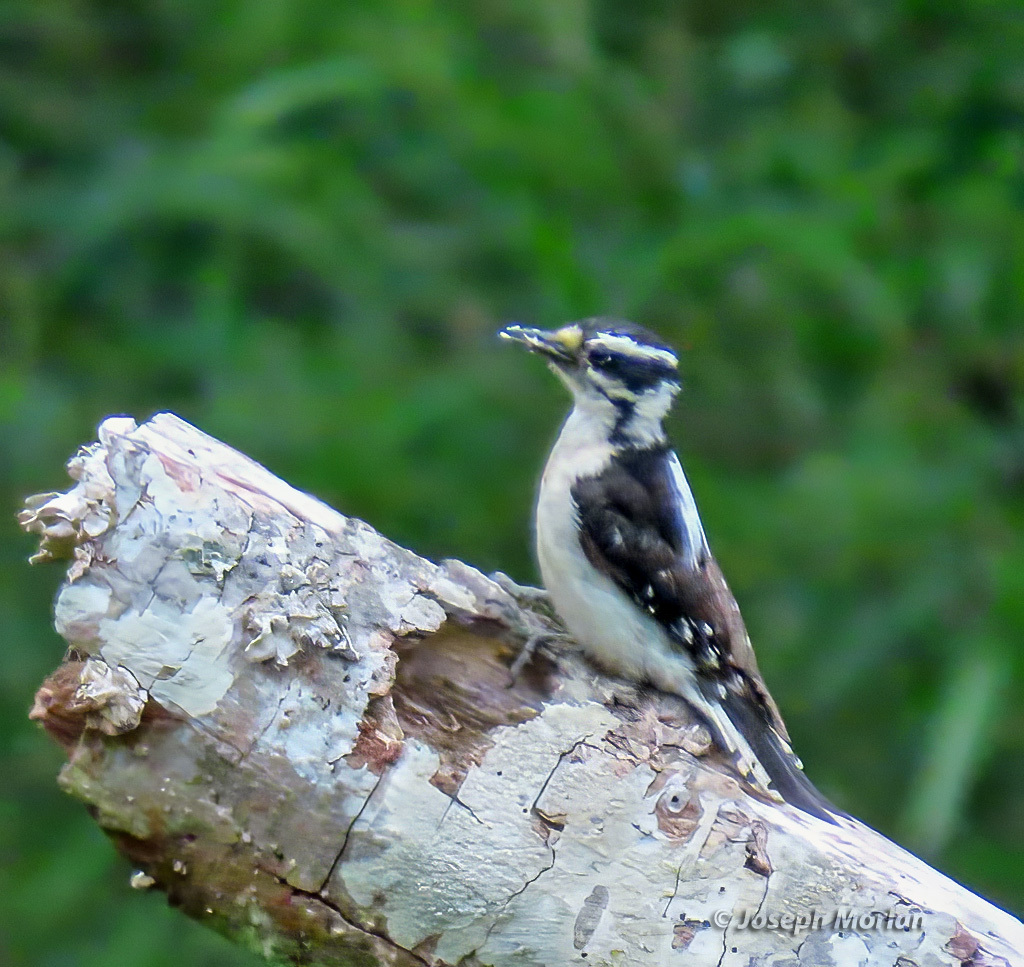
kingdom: Animalia
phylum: Chordata
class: Aves
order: Piciformes
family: Picidae
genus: Dryobates
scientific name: Dryobates pubescens
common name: Downy woodpecker
